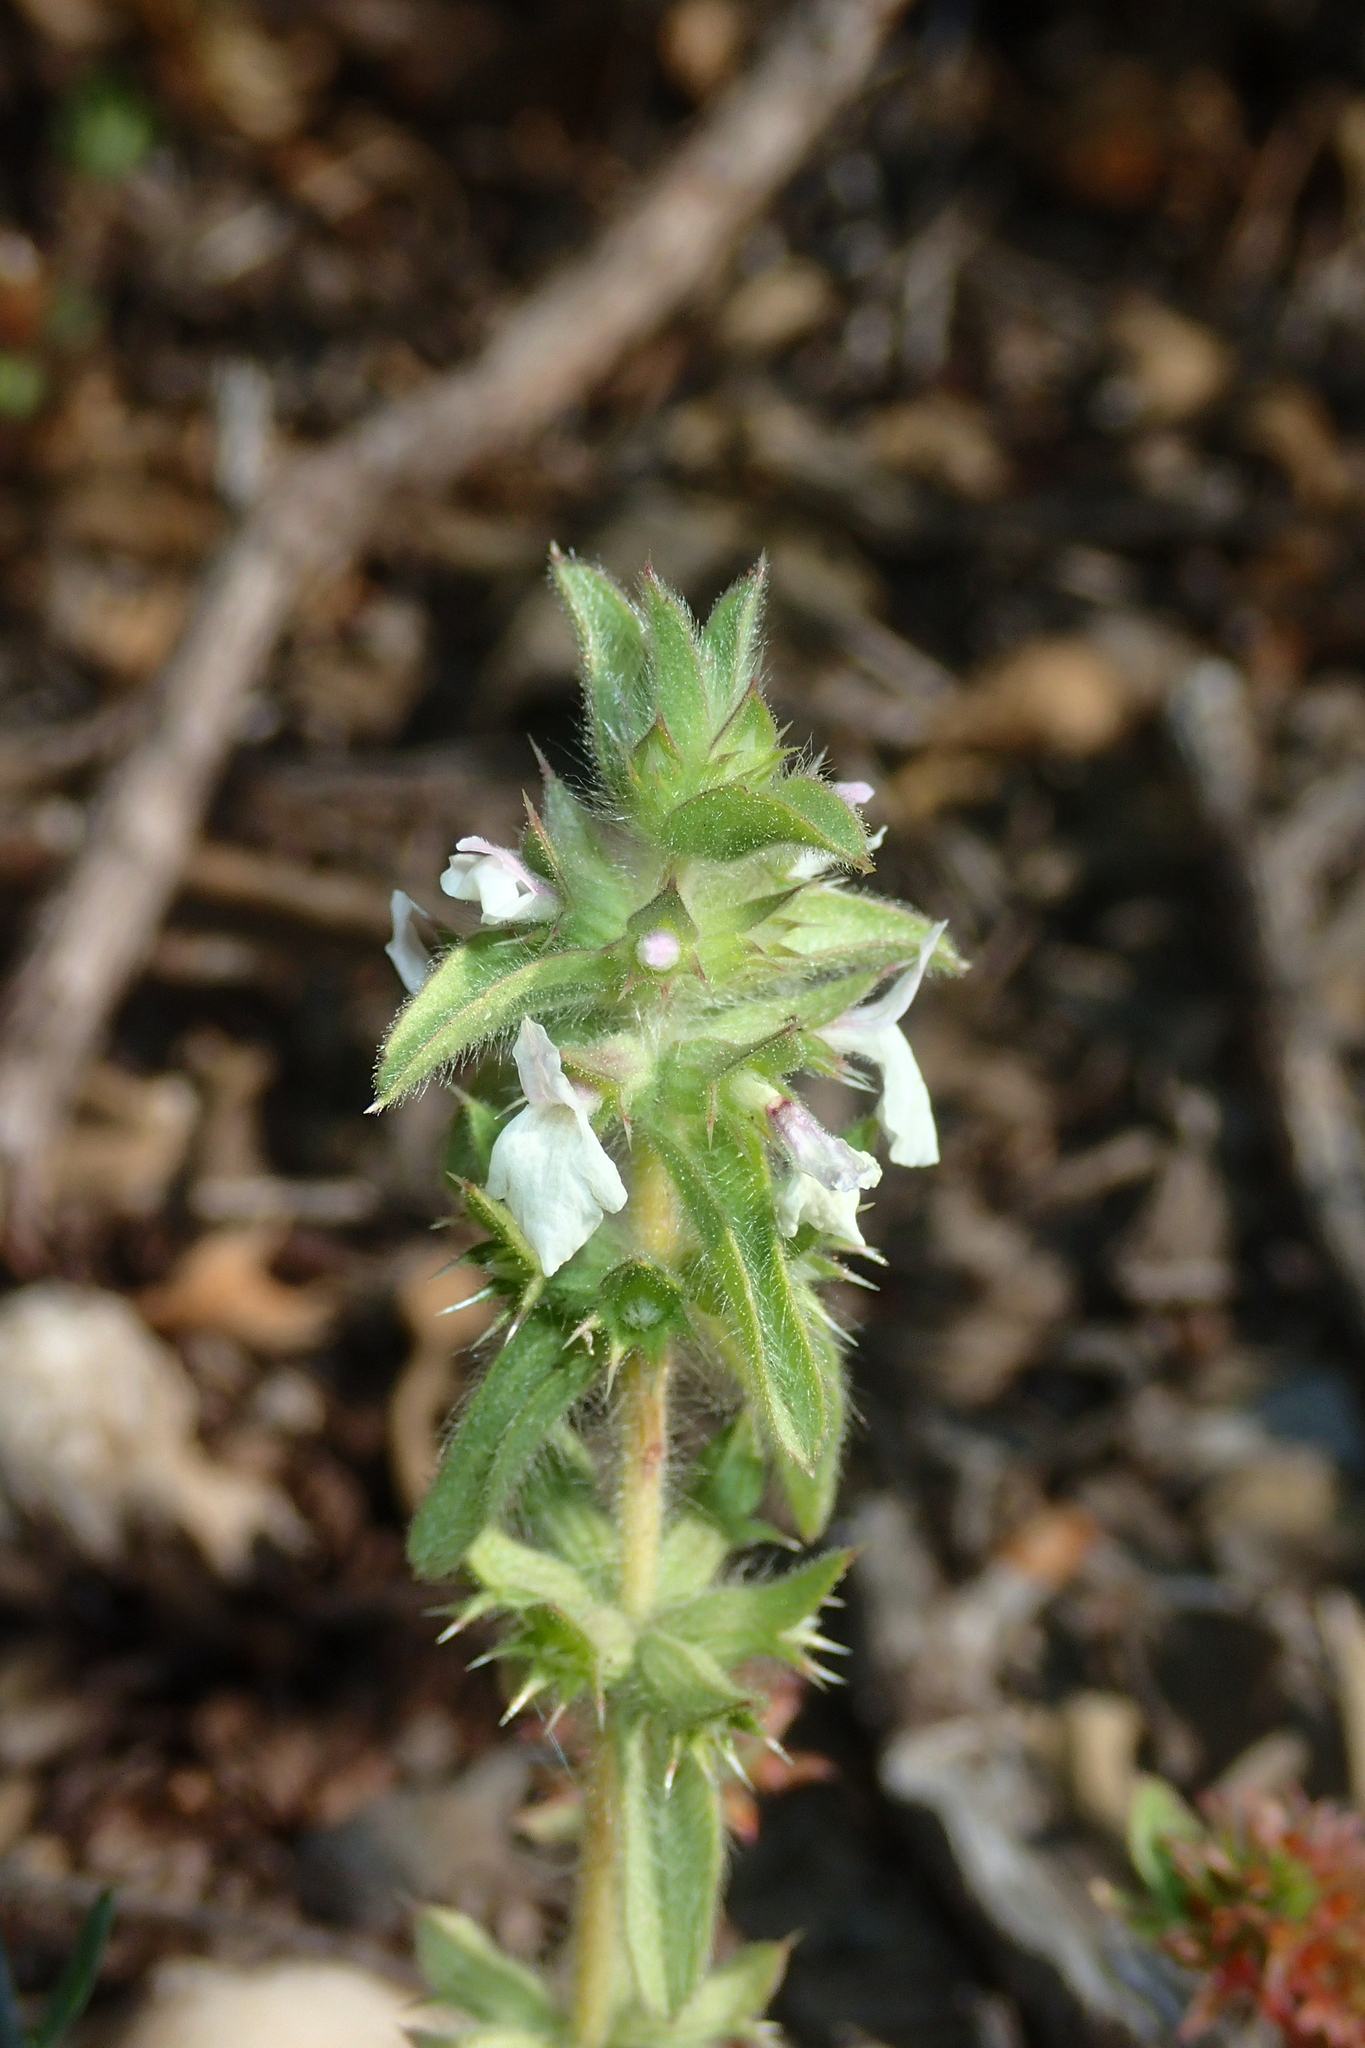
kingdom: Plantae
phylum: Tracheophyta
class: Magnoliopsida
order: Lamiales
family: Lamiaceae
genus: Sideritis
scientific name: Sideritis romana
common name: Simplebeak ironwort
